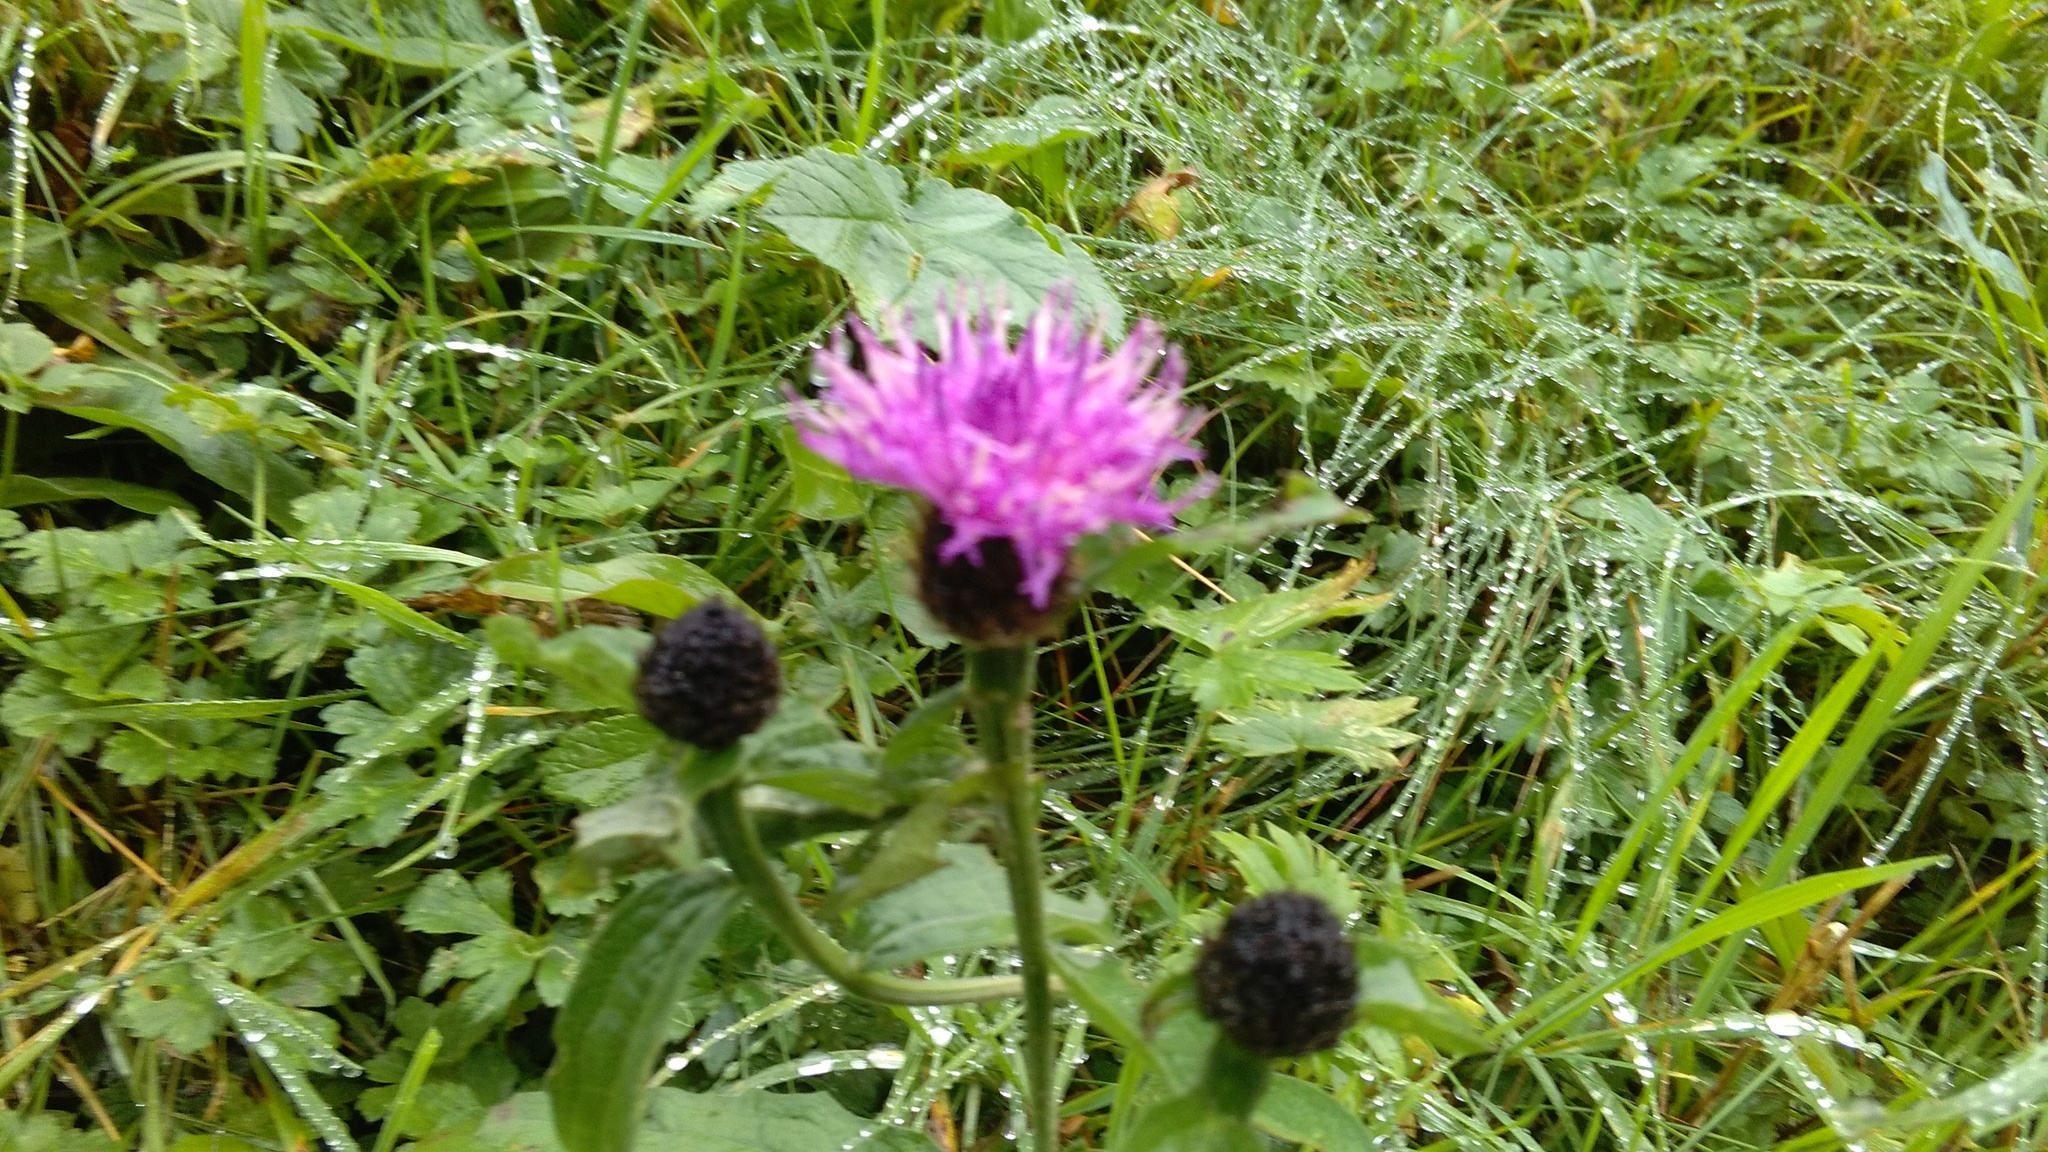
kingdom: Plantae
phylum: Tracheophyta
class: Magnoliopsida
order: Asterales
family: Asteraceae
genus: Centaurea
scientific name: Centaurea nigra
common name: Lesser knapweed
